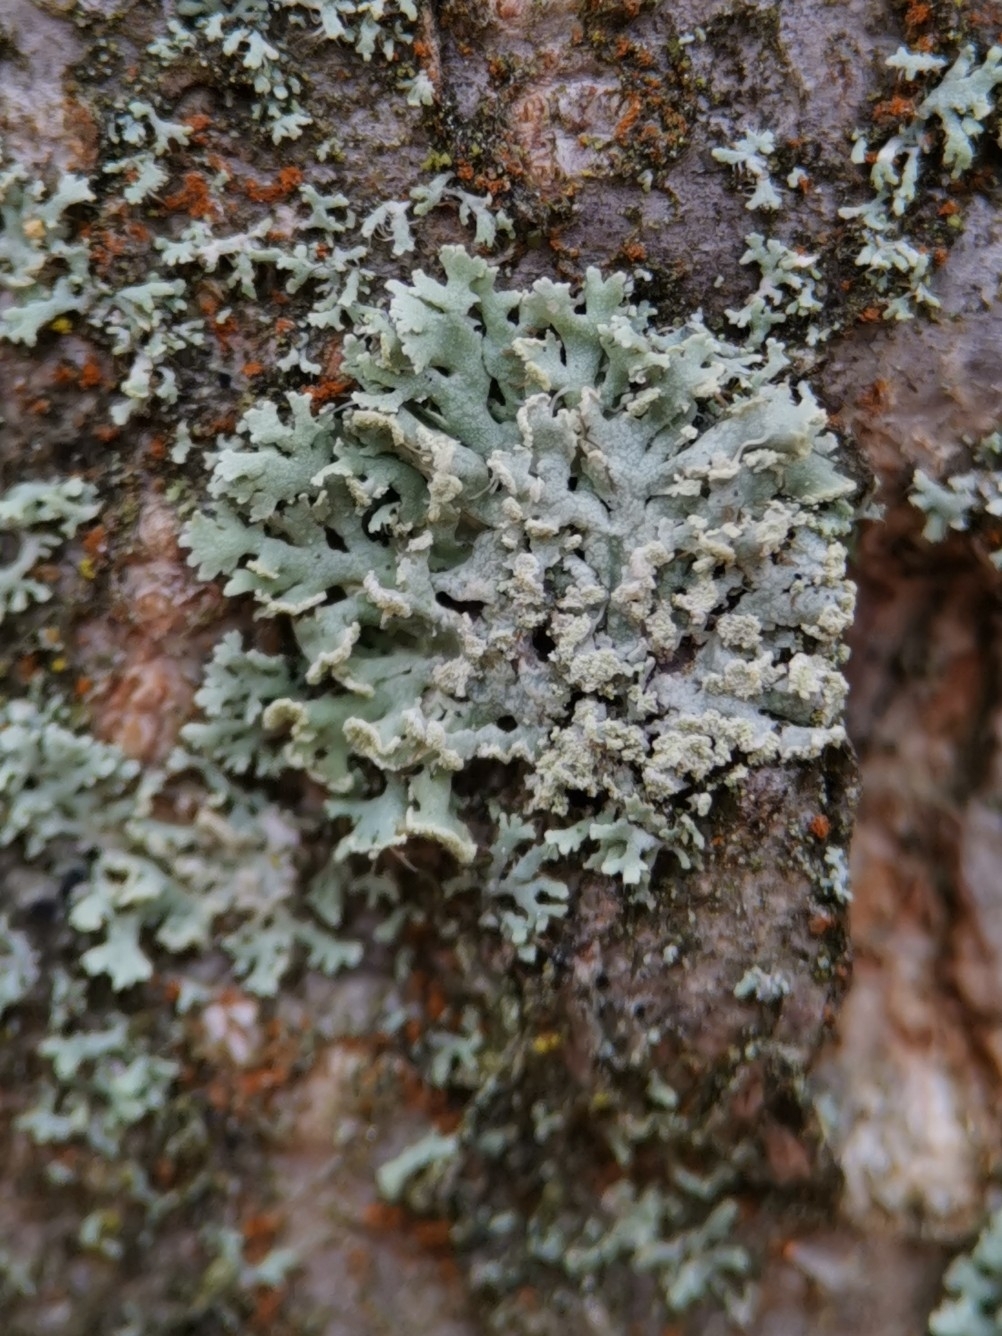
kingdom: Fungi
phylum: Ascomycota
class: Lecanoromycetes
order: Caliciales
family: Physciaceae
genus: Physcia
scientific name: Physcia tenella
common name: Fringed rosette lichen
